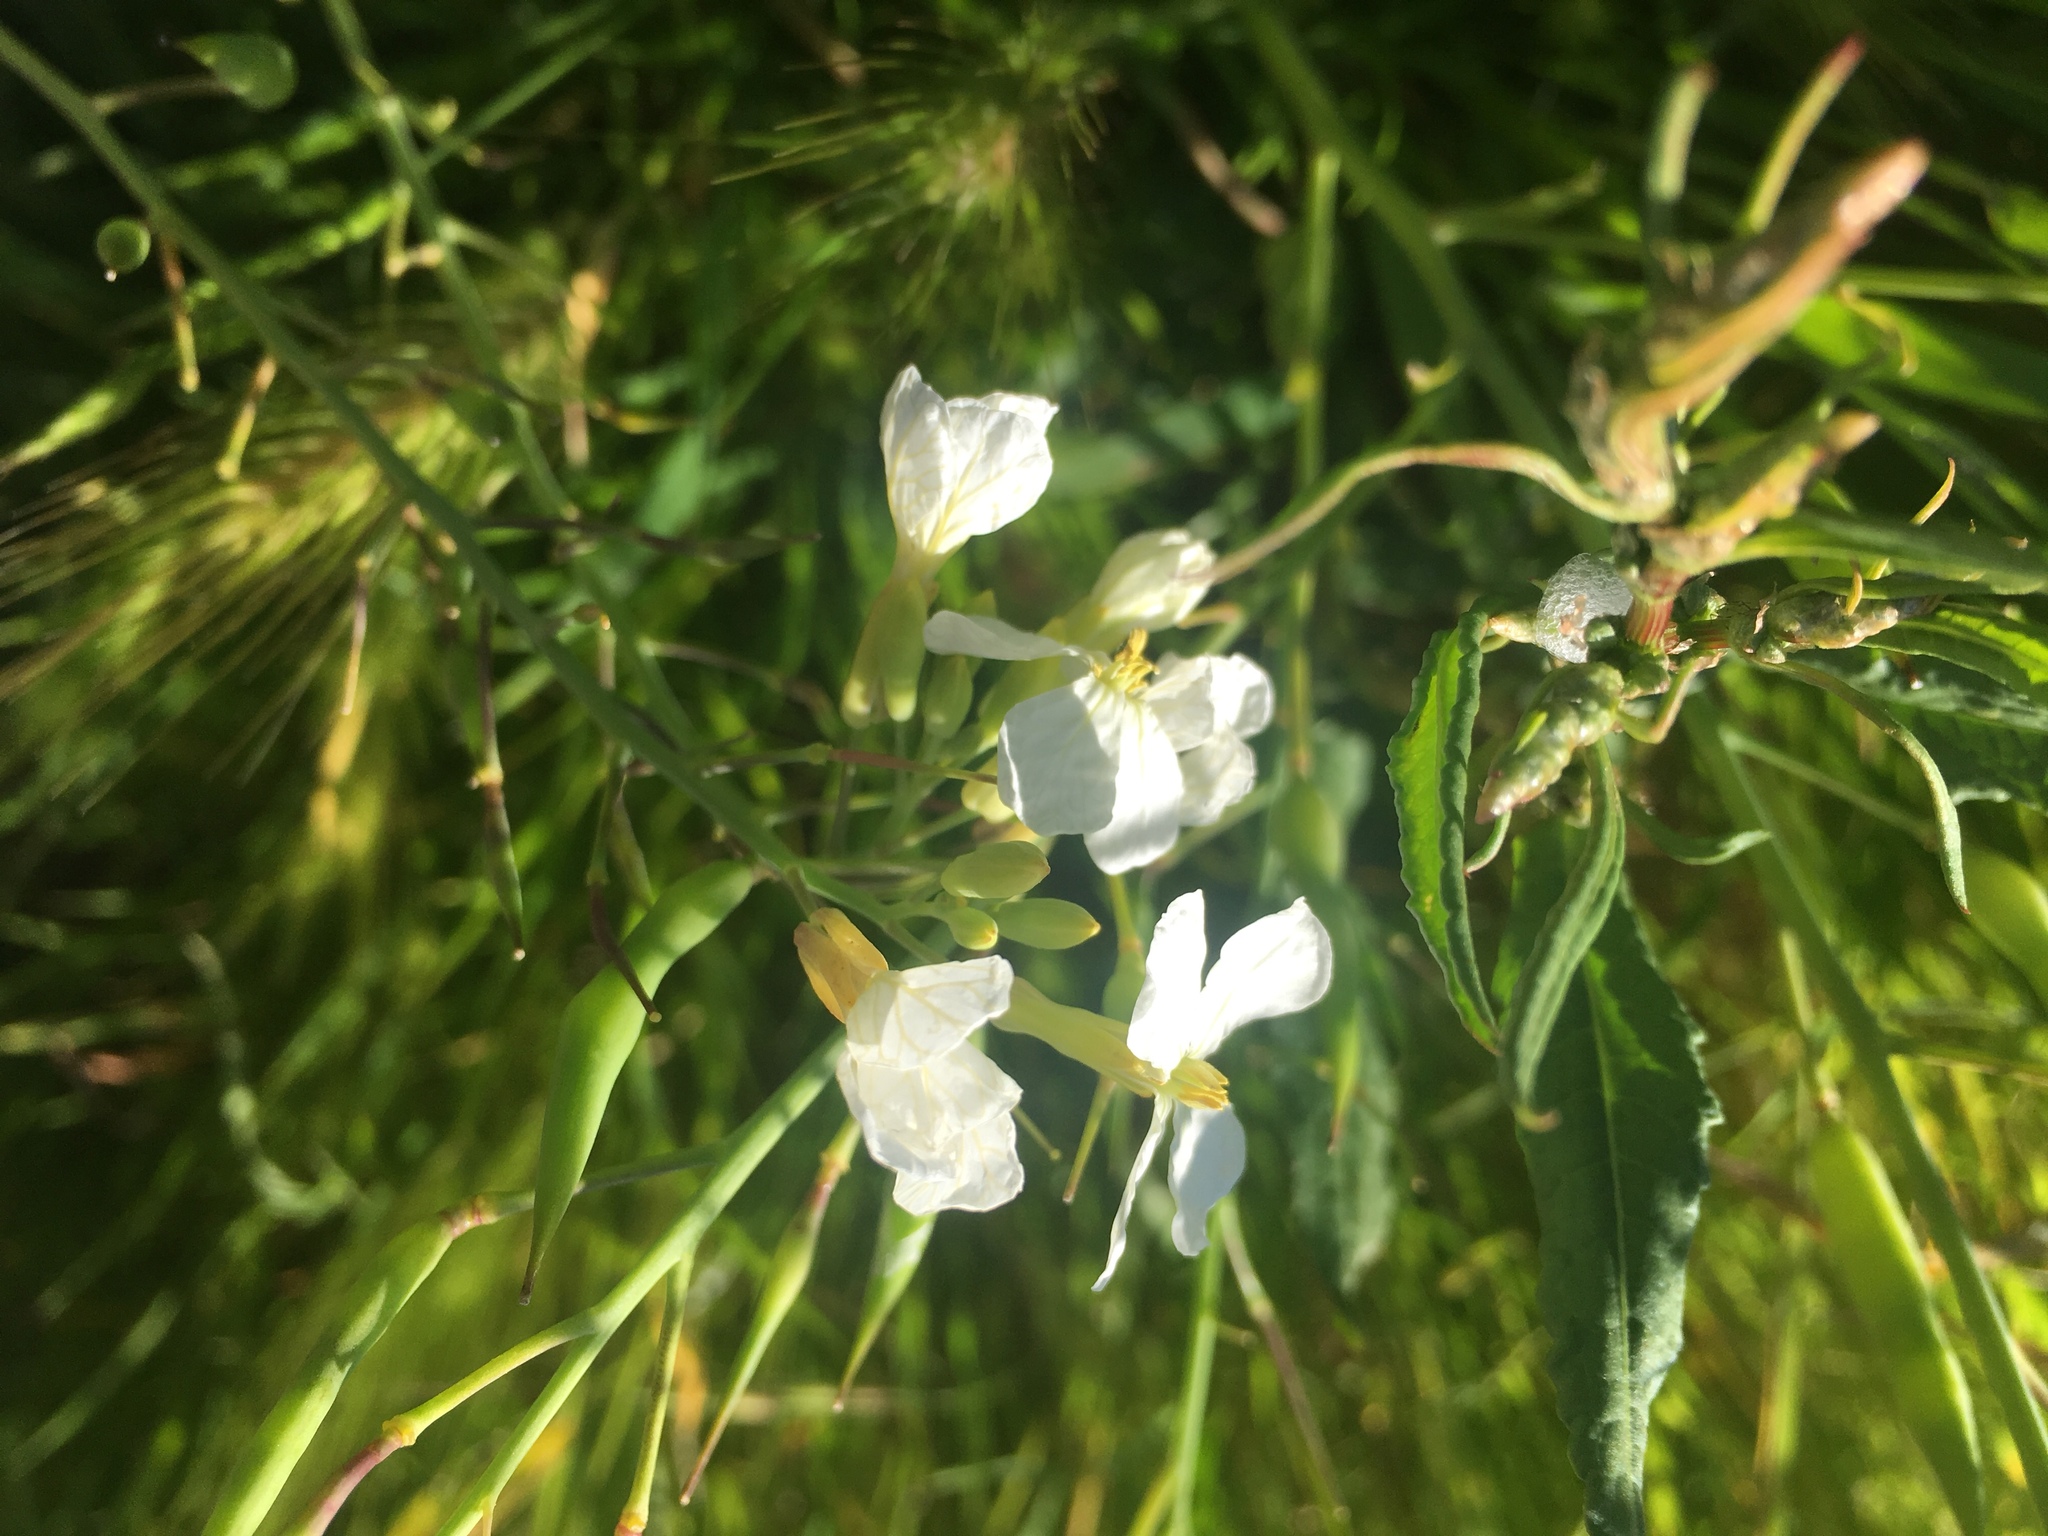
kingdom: Plantae
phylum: Tracheophyta
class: Magnoliopsida
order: Brassicales
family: Brassicaceae
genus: Raphanus
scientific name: Raphanus sativus
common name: Cultivated radish
